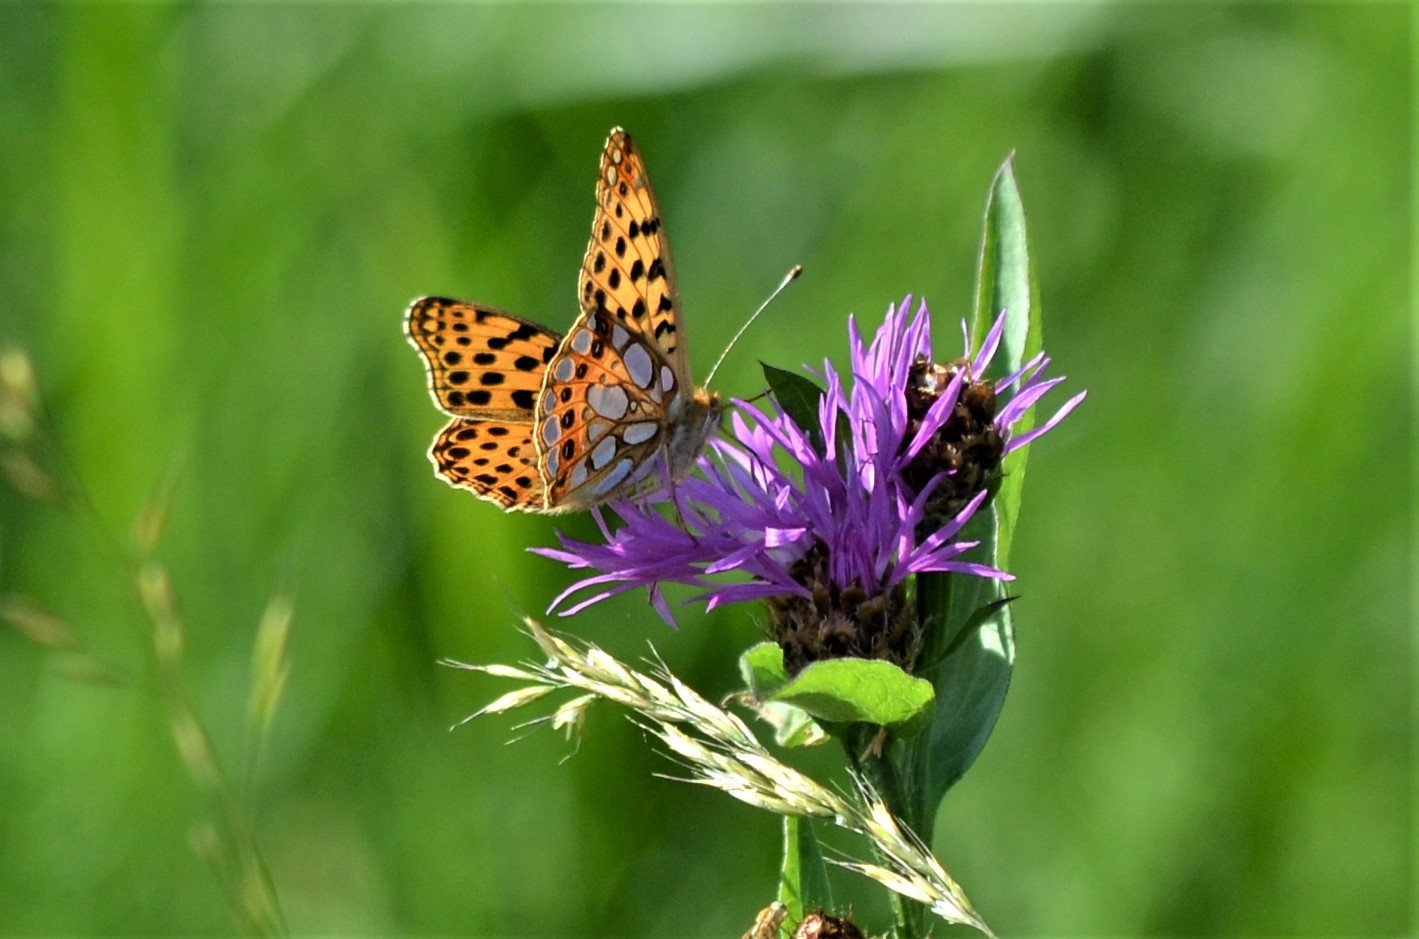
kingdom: Animalia
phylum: Arthropoda
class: Insecta
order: Lepidoptera
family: Nymphalidae
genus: Issoria
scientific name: Issoria lathonia
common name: Queen of spain fritillary
